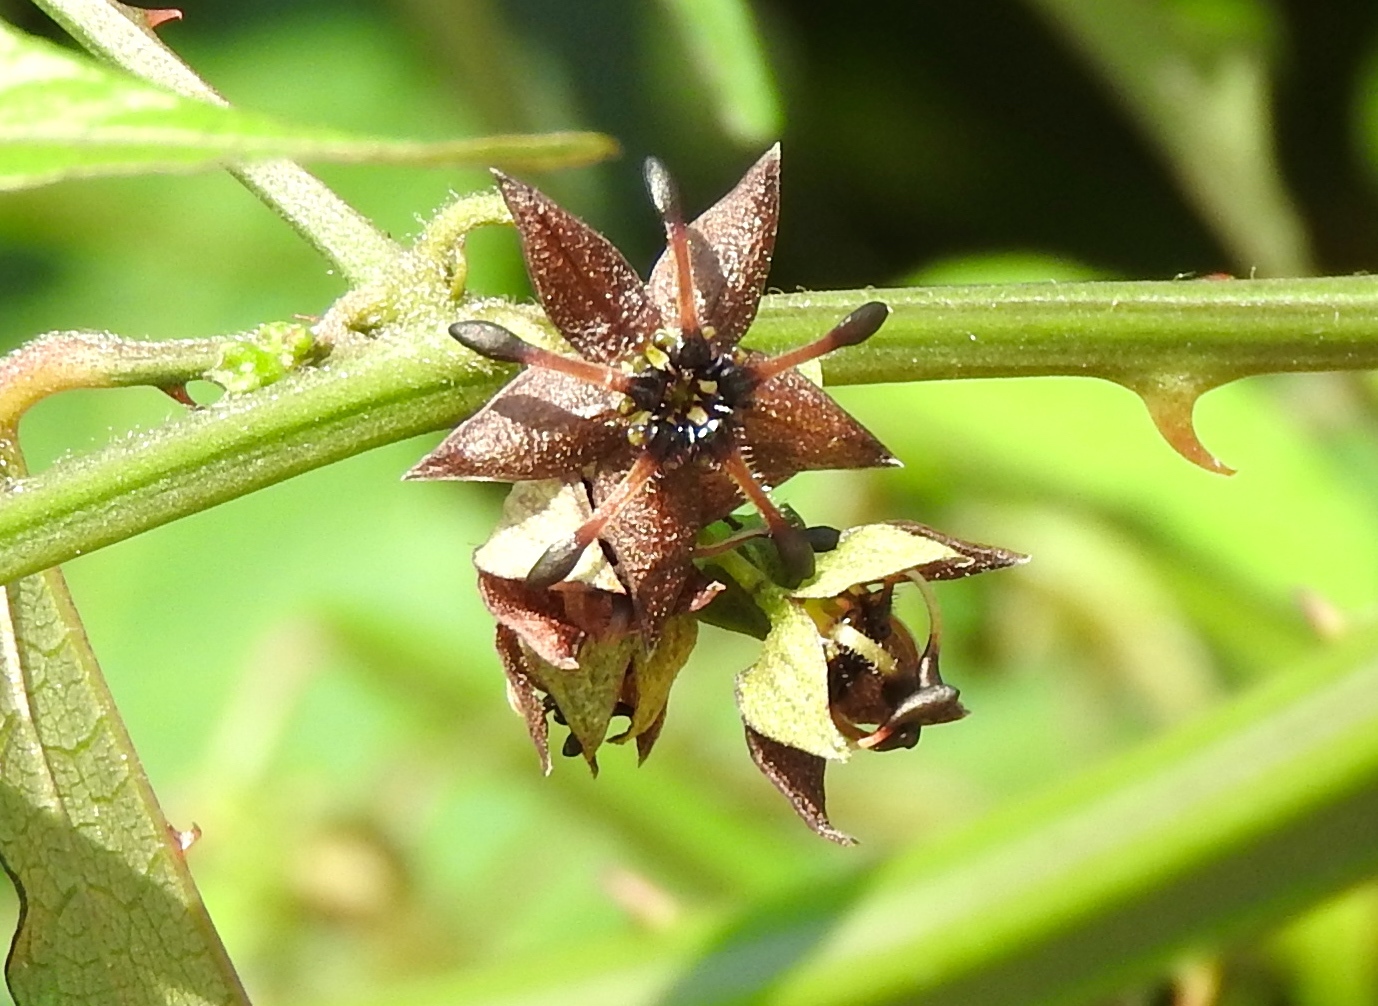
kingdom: Plantae
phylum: Tracheophyta
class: Magnoliopsida
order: Malvales
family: Malvaceae
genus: Byttneria
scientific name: Byttneria aculeata
